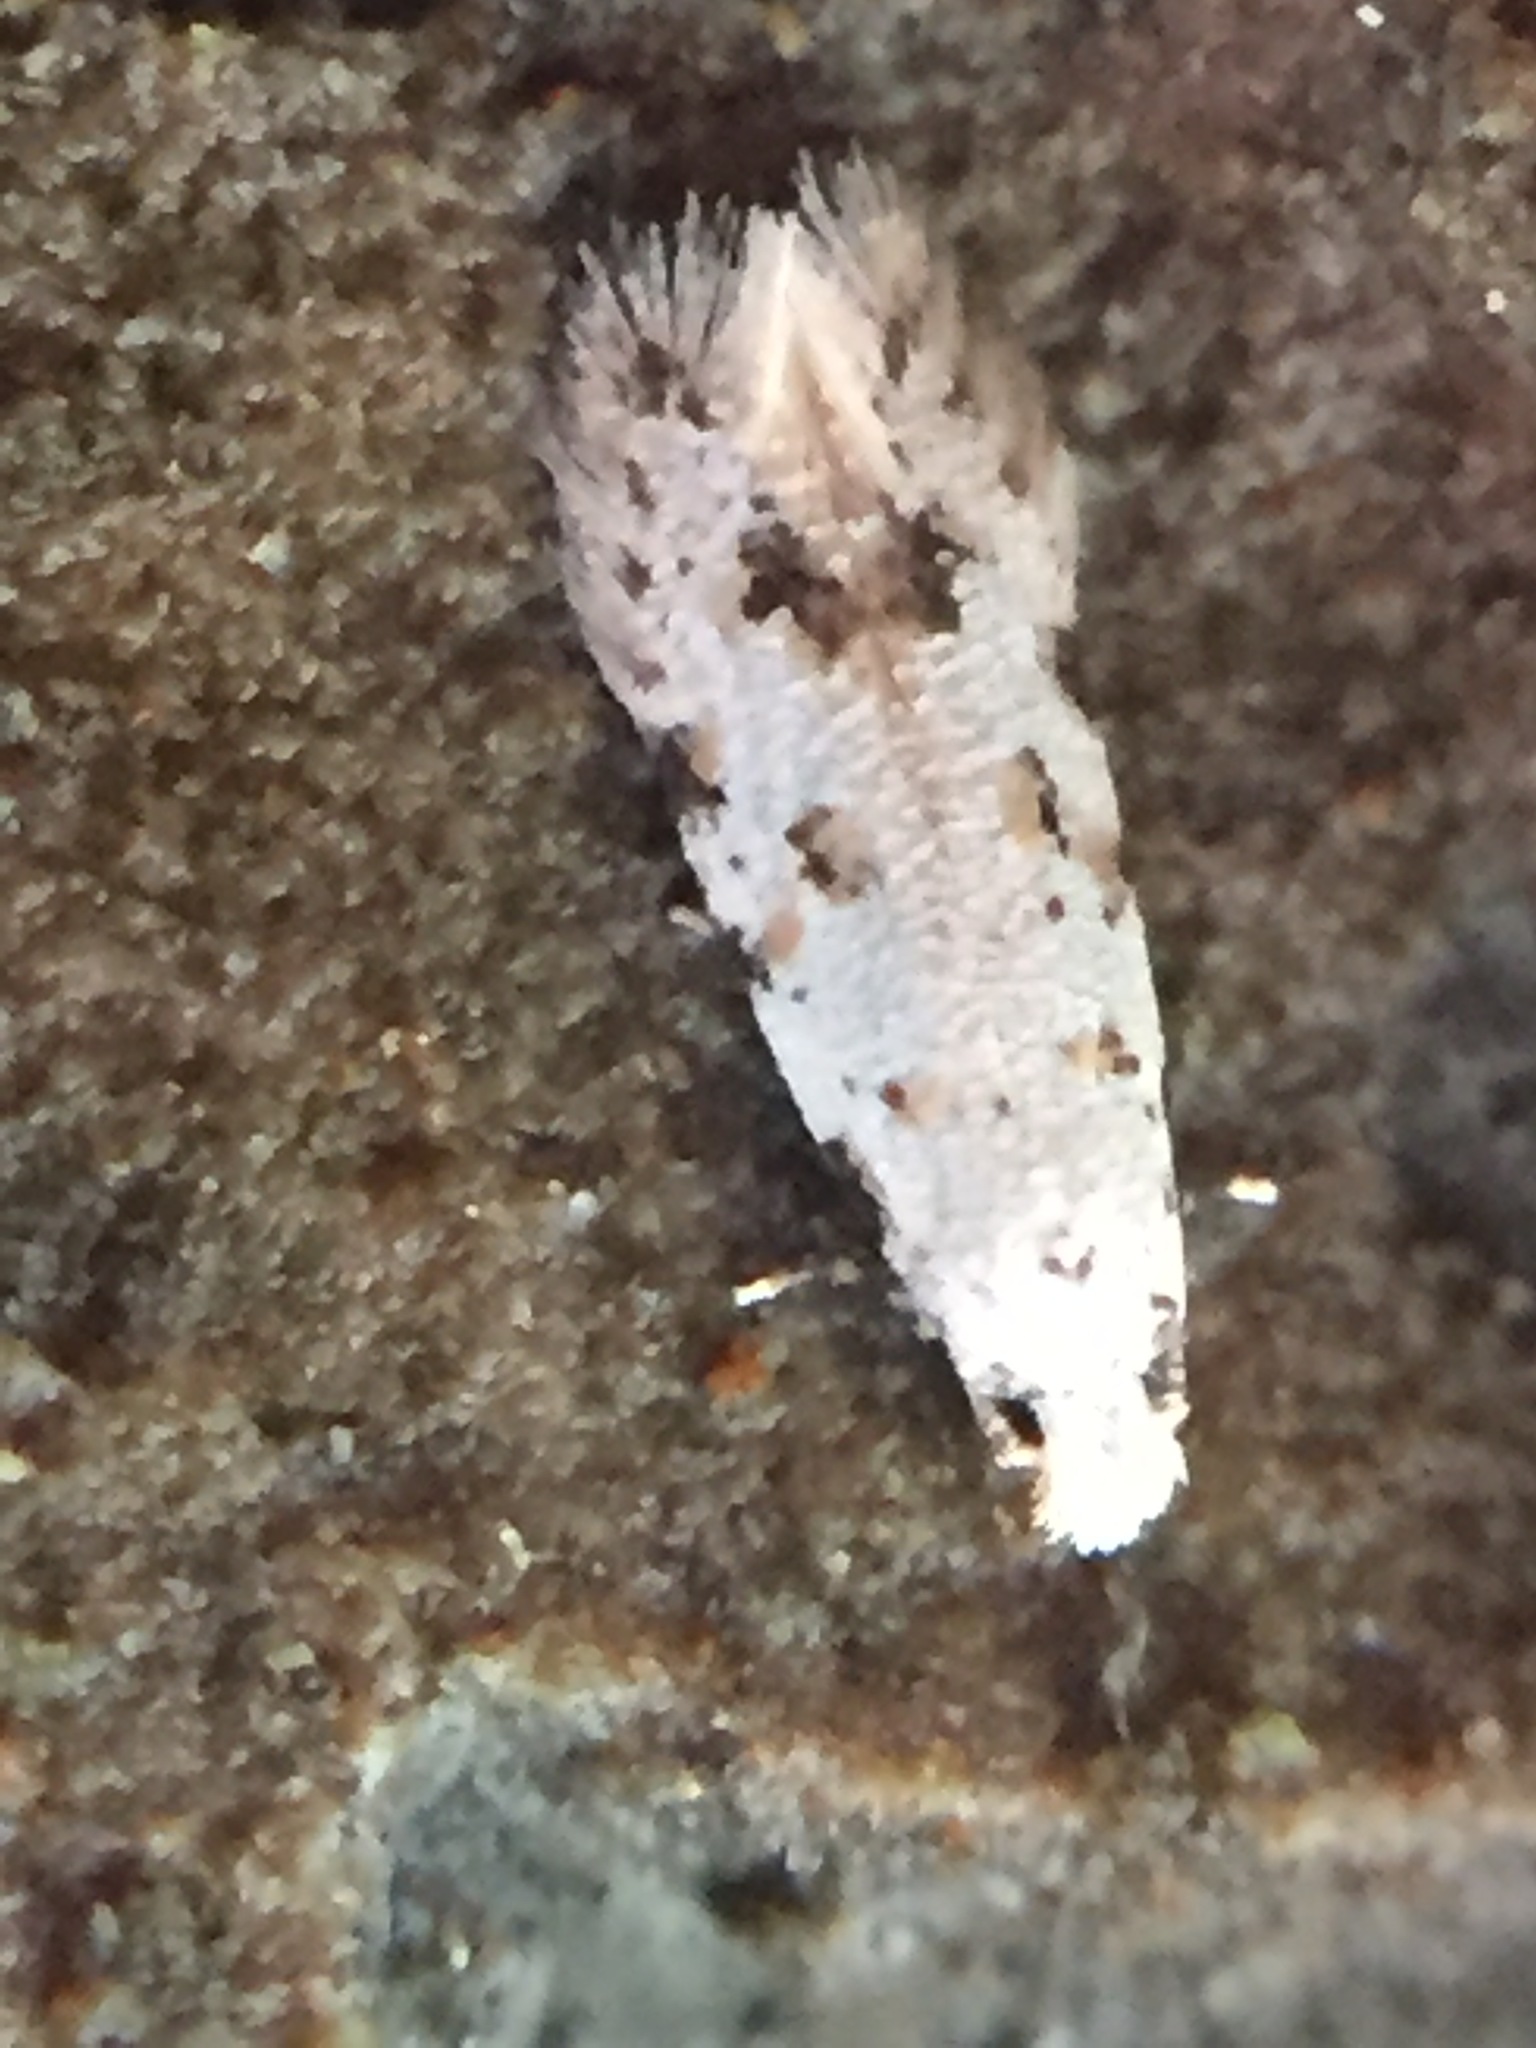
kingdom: Animalia
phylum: Arthropoda
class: Insecta
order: Lepidoptera
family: Tineidae
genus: Crypsitricha
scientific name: Crypsitricha stereota
